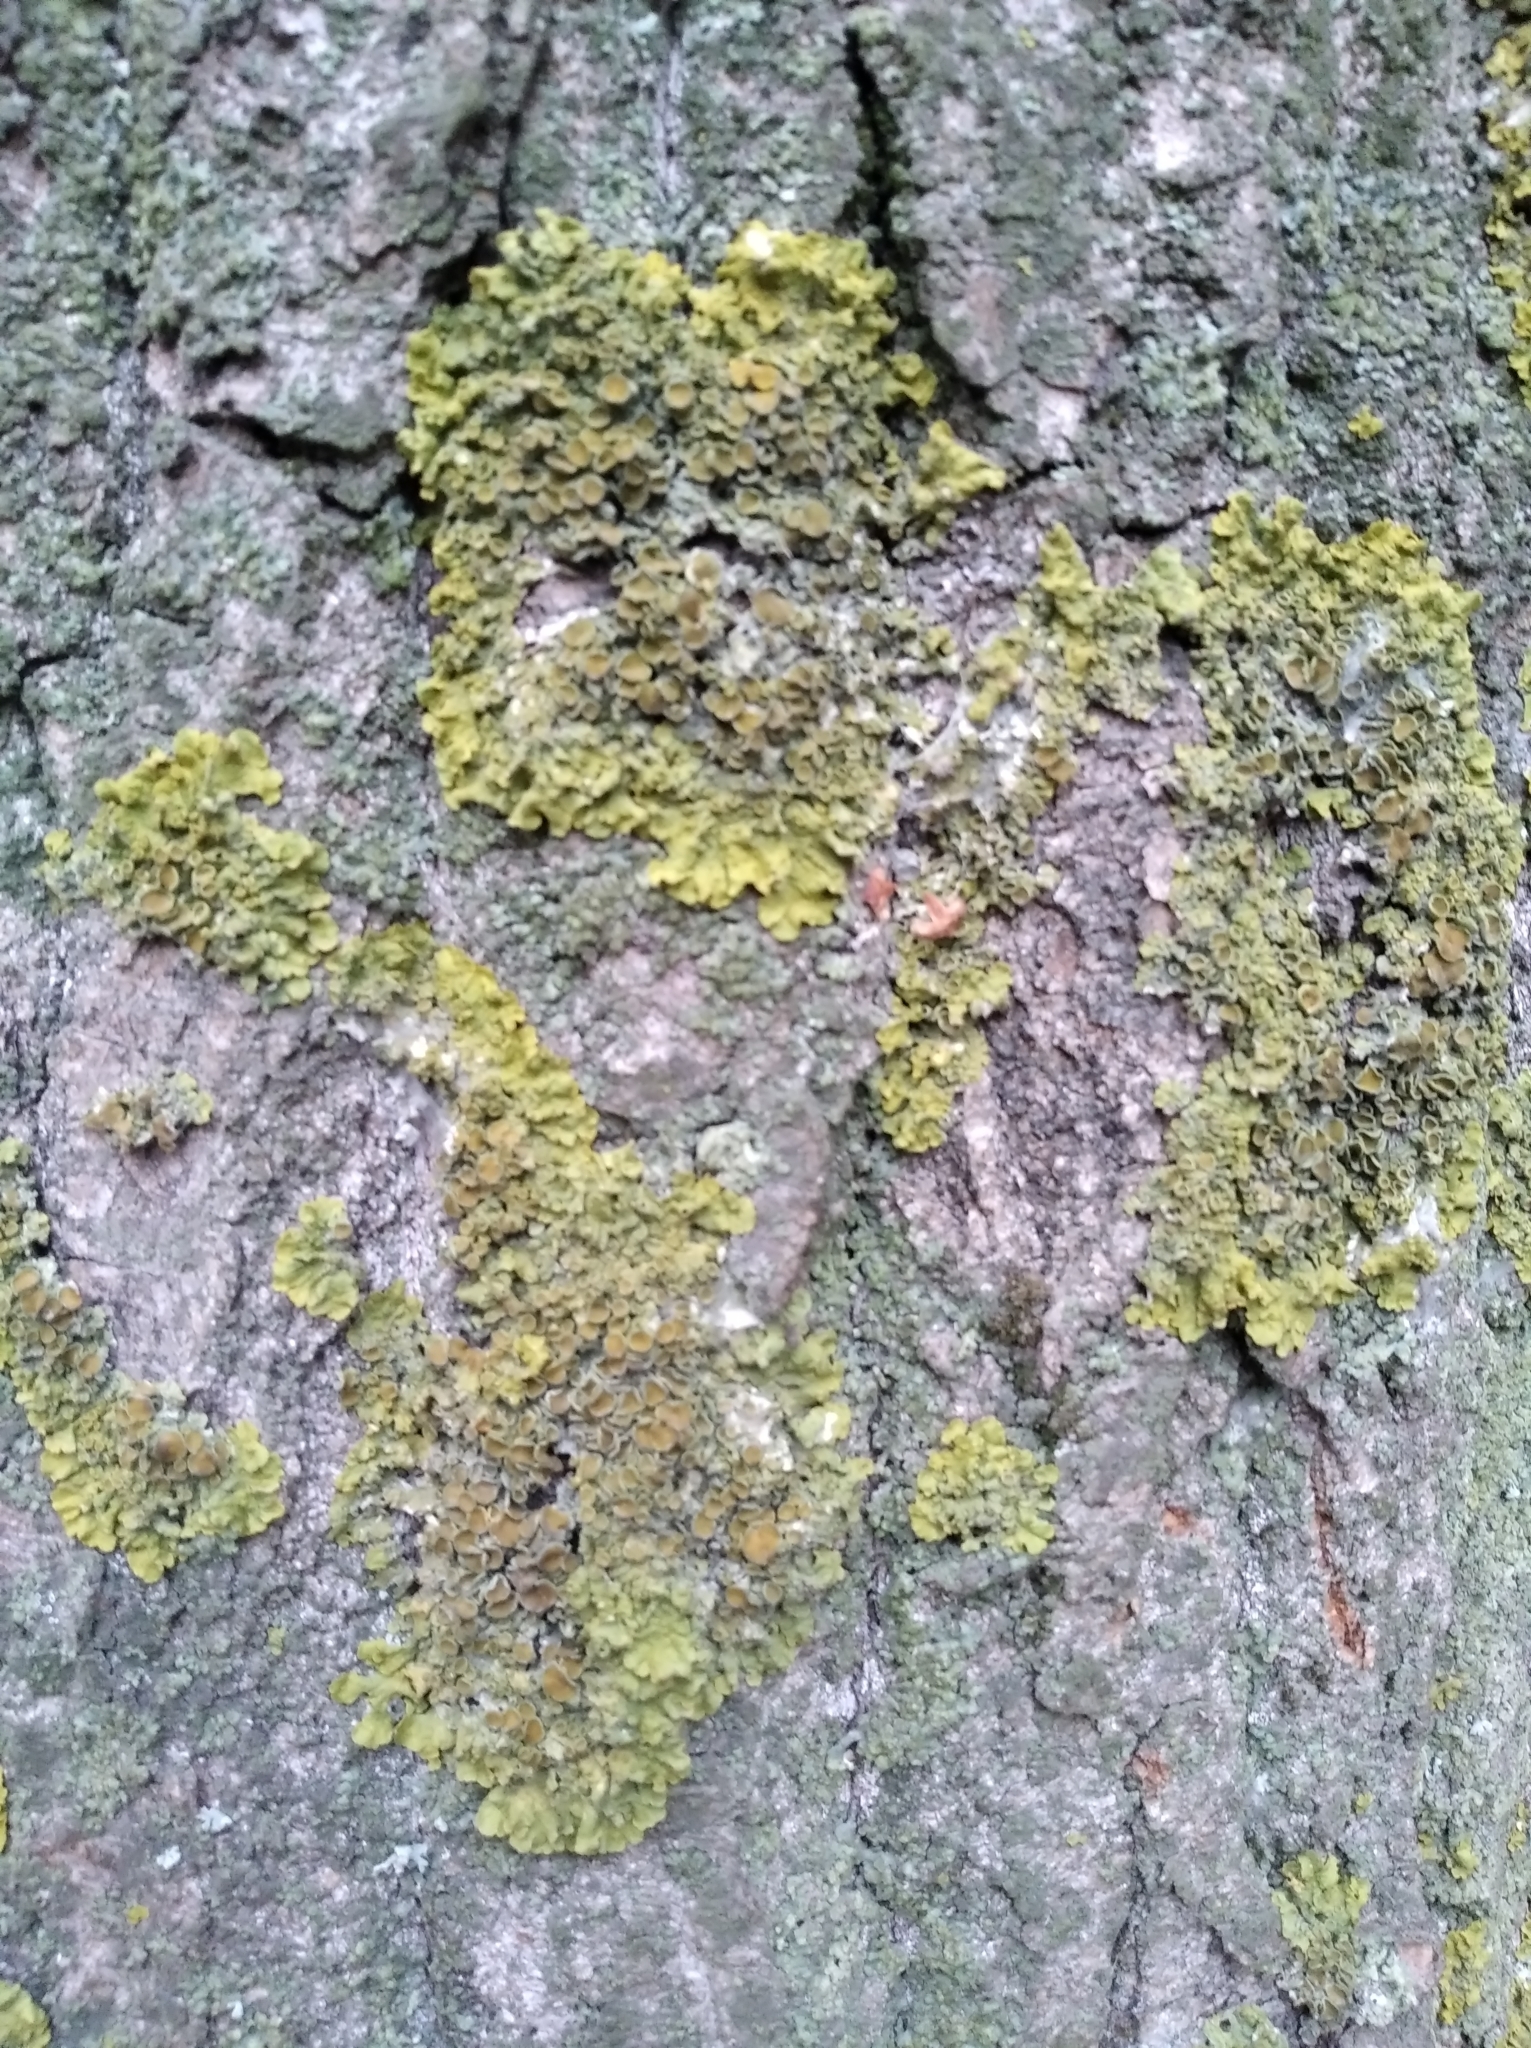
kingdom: Fungi
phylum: Ascomycota
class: Lecanoromycetes
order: Teloschistales
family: Teloschistaceae
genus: Xanthoria
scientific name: Xanthoria parietina
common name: Common orange lichen
